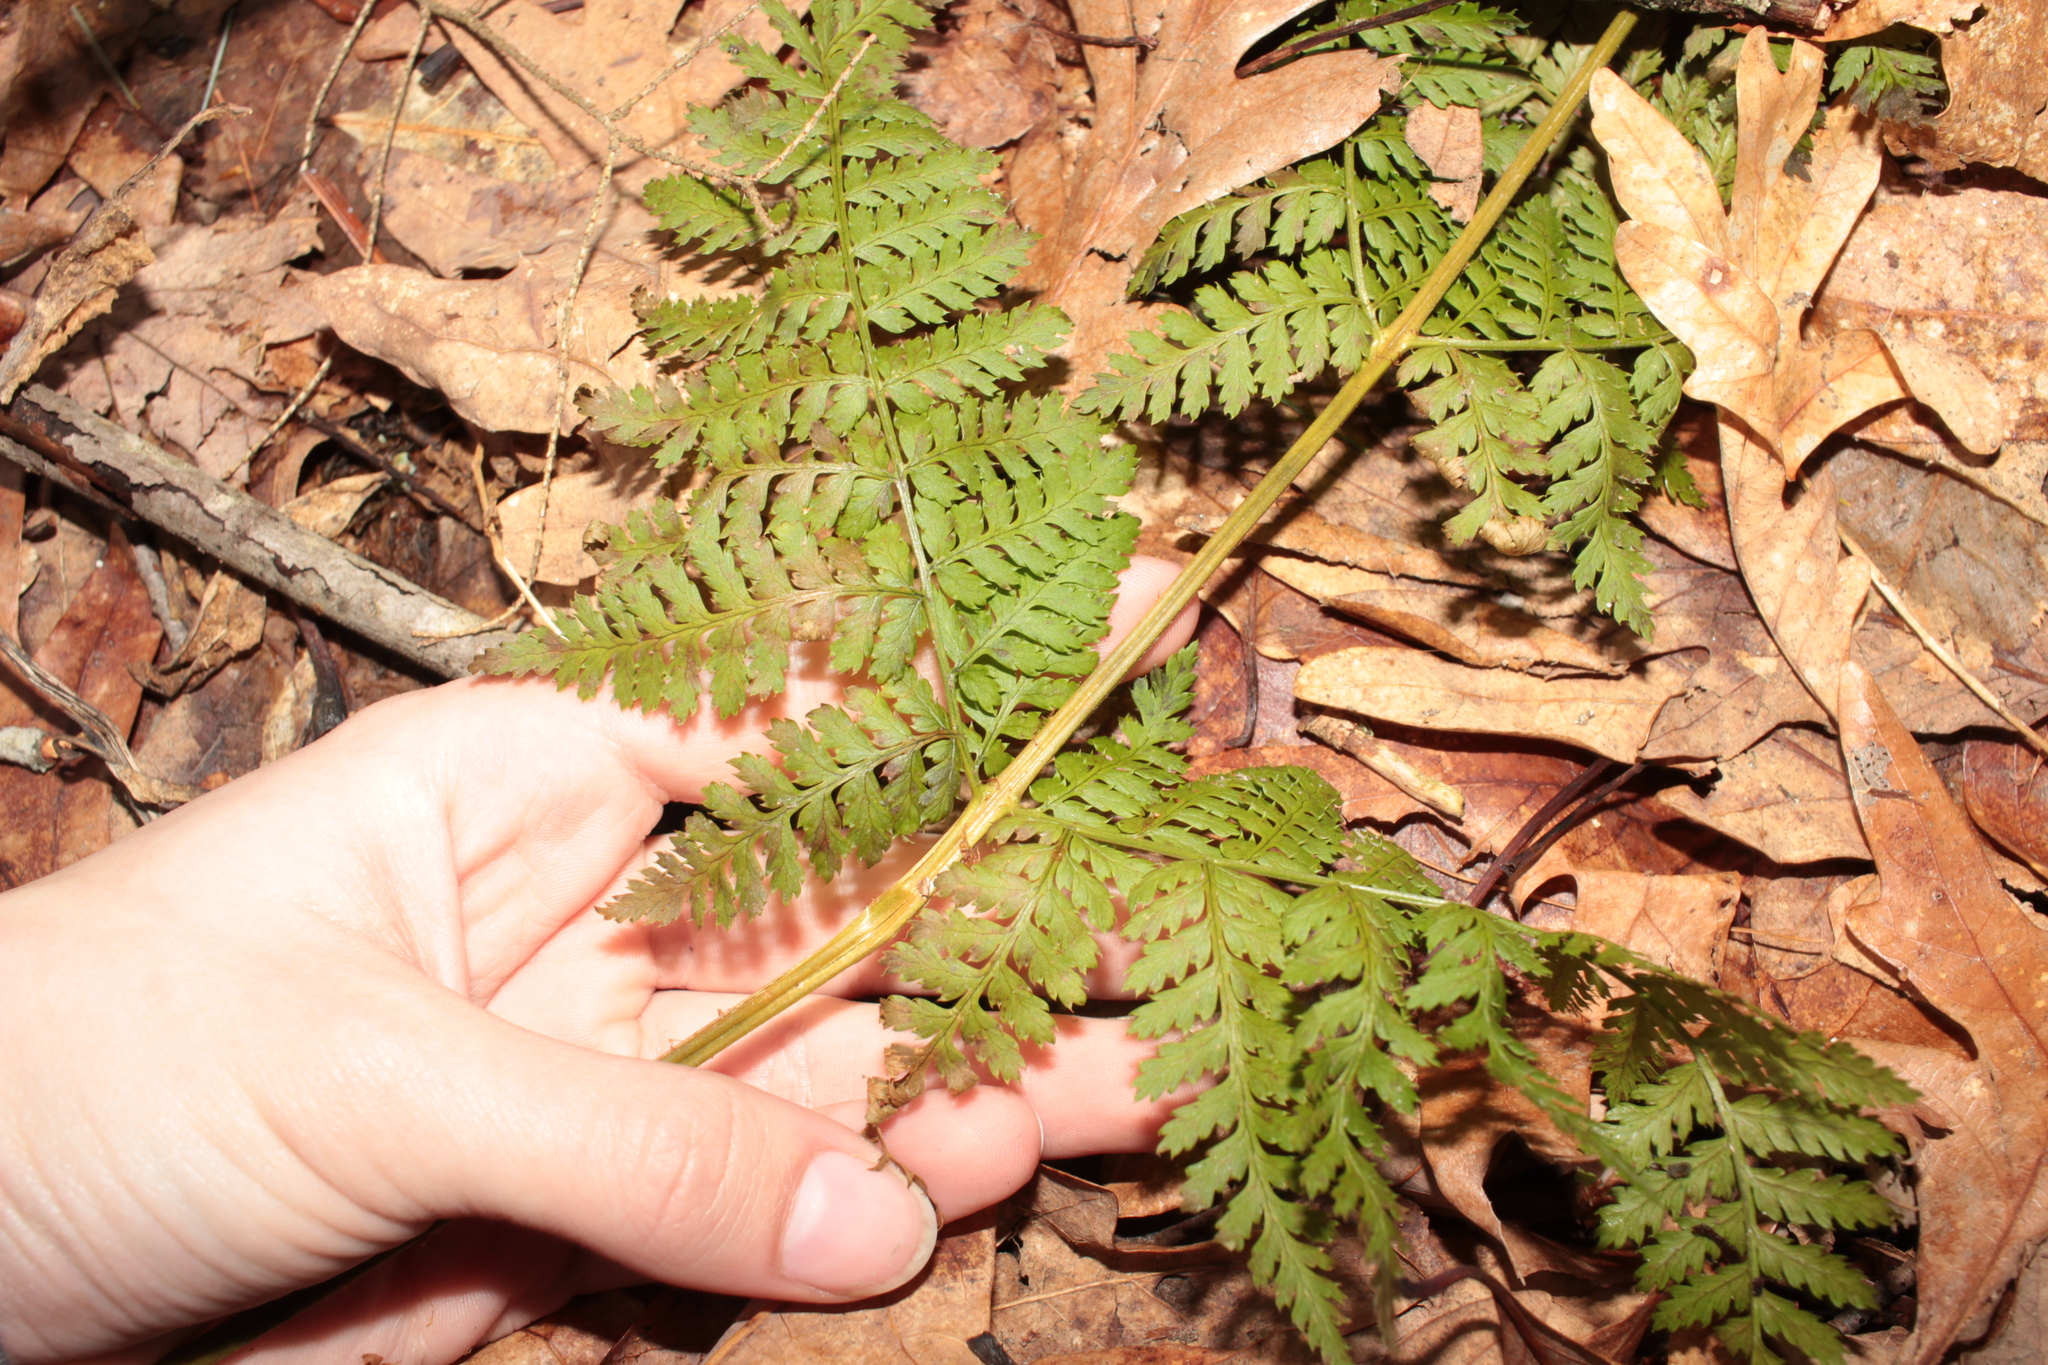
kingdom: Plantae
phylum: Tracheophyta
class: Polypodiopsida
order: Polypodiales
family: Dryopteridaceae
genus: Dryopteris
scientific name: Dryopteris intermedia
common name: Evergreen wood fern
